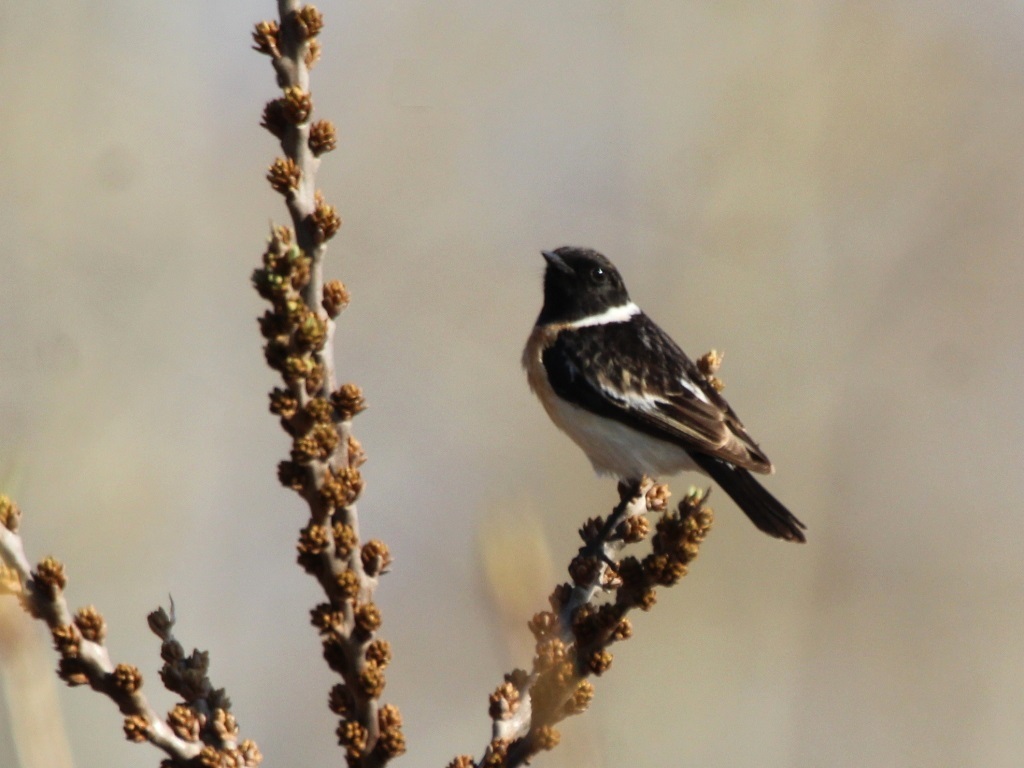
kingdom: Animalia
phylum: Chordata
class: Aves
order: Passeriformes
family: Muscicapidae
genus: Saxicola
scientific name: Saxicola maurus
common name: Siberian stonechat
